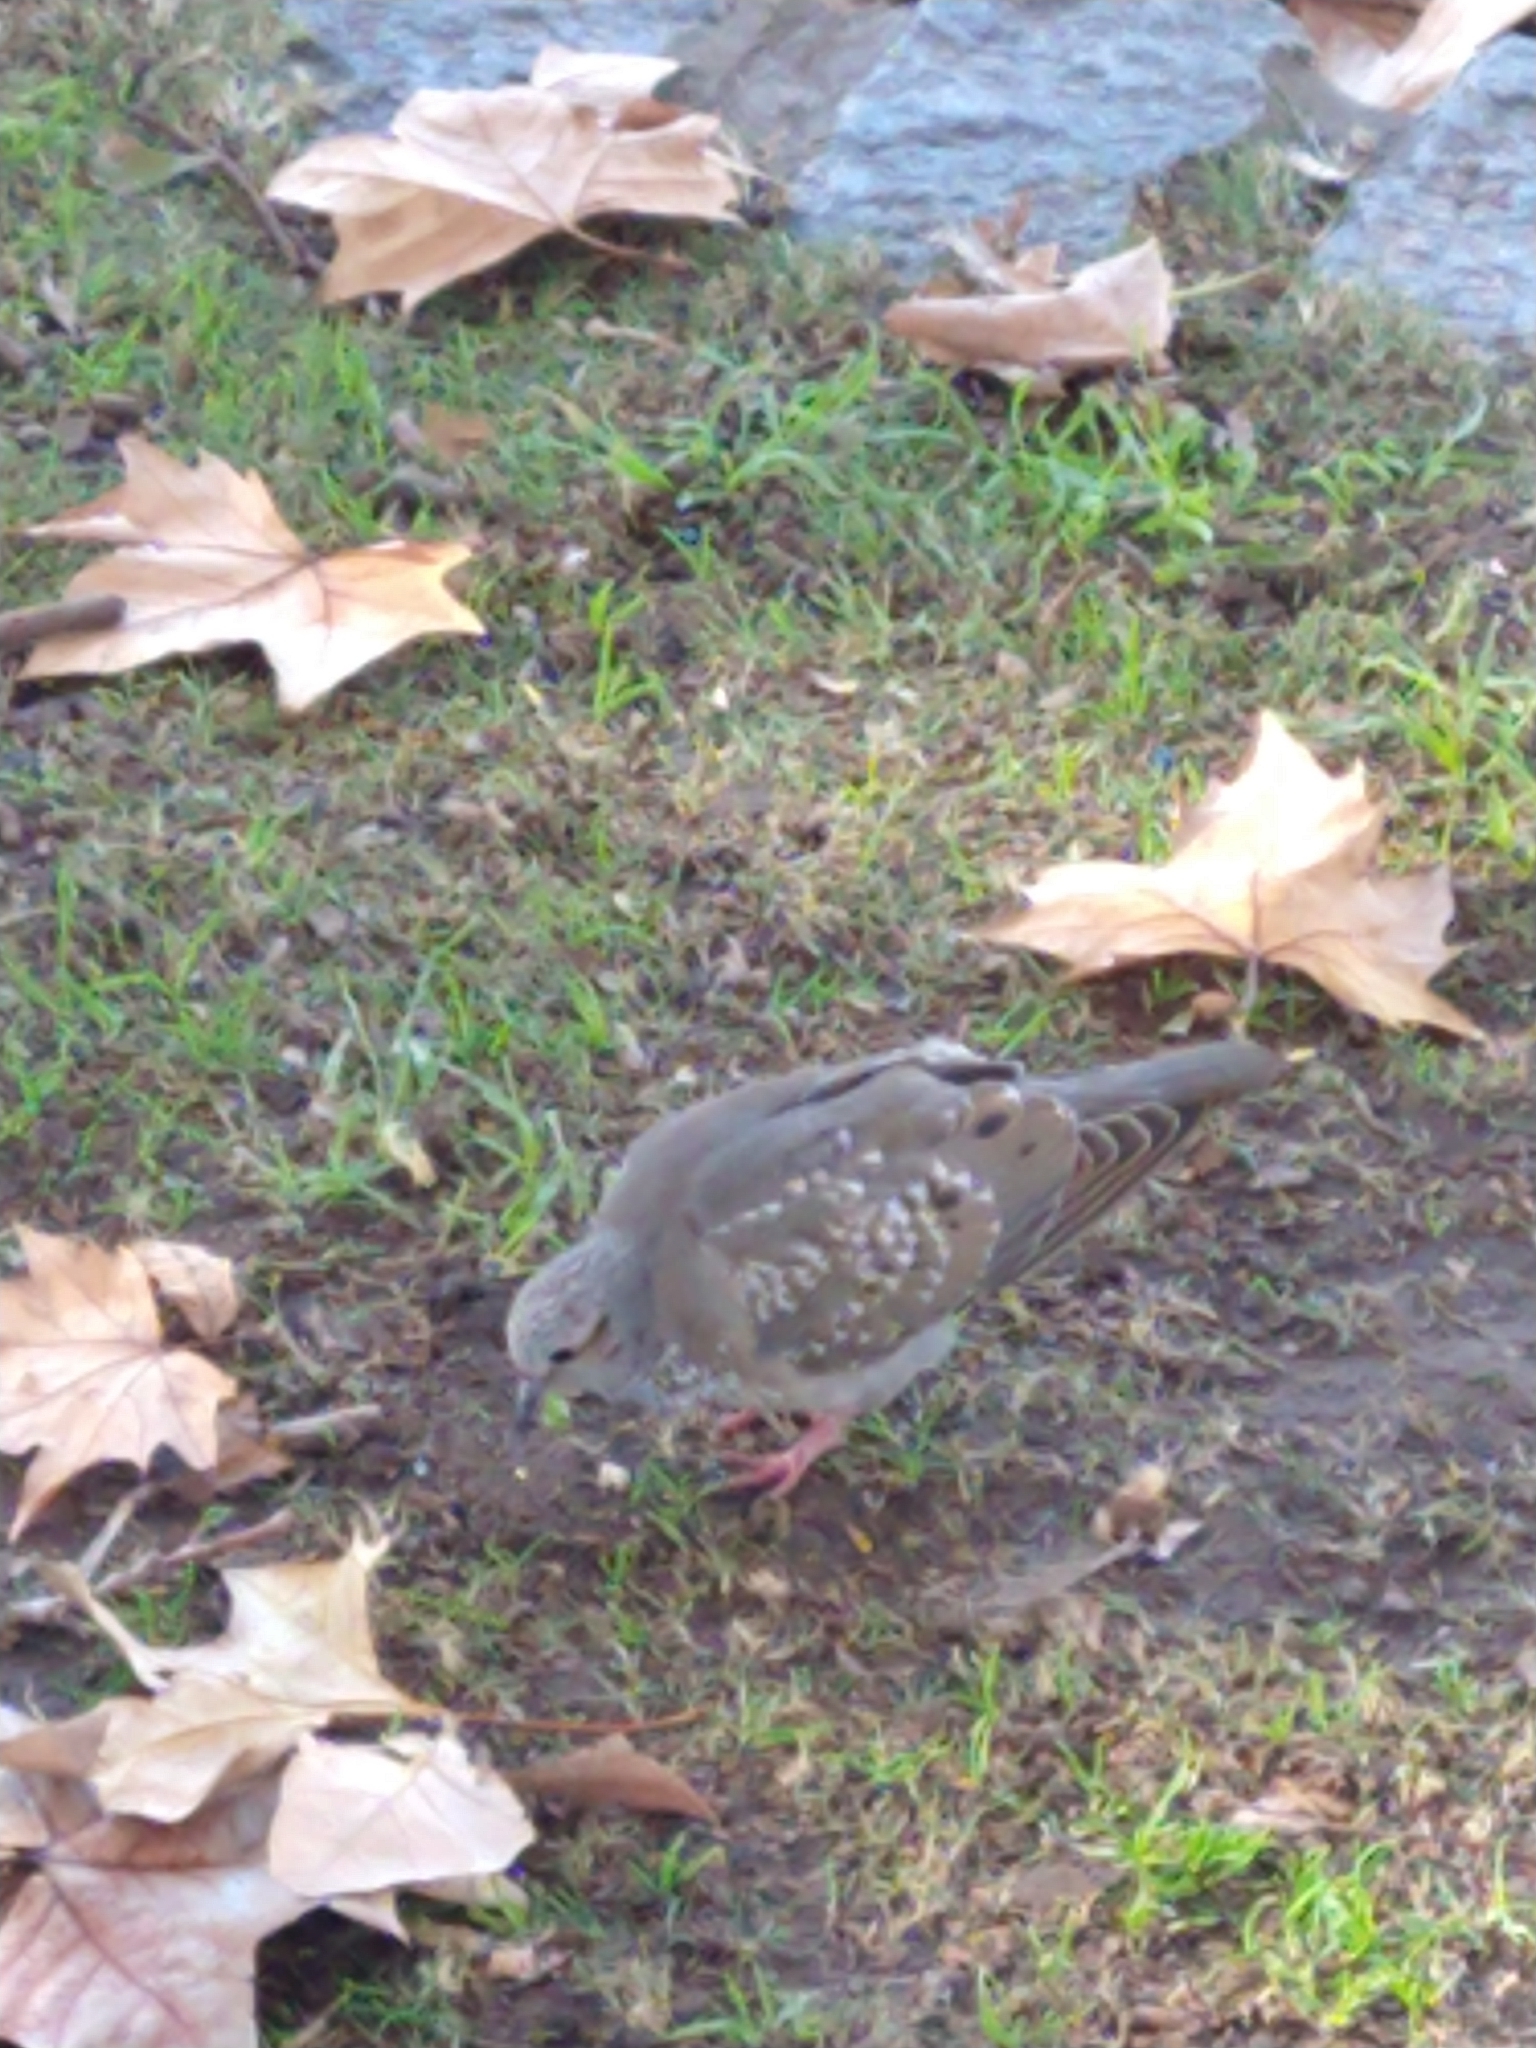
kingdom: Animalia
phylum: Chordata
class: Aves
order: Columbiformes
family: Columbidae
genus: Zenaida
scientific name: Zenaida auriculata
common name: Eared dove
